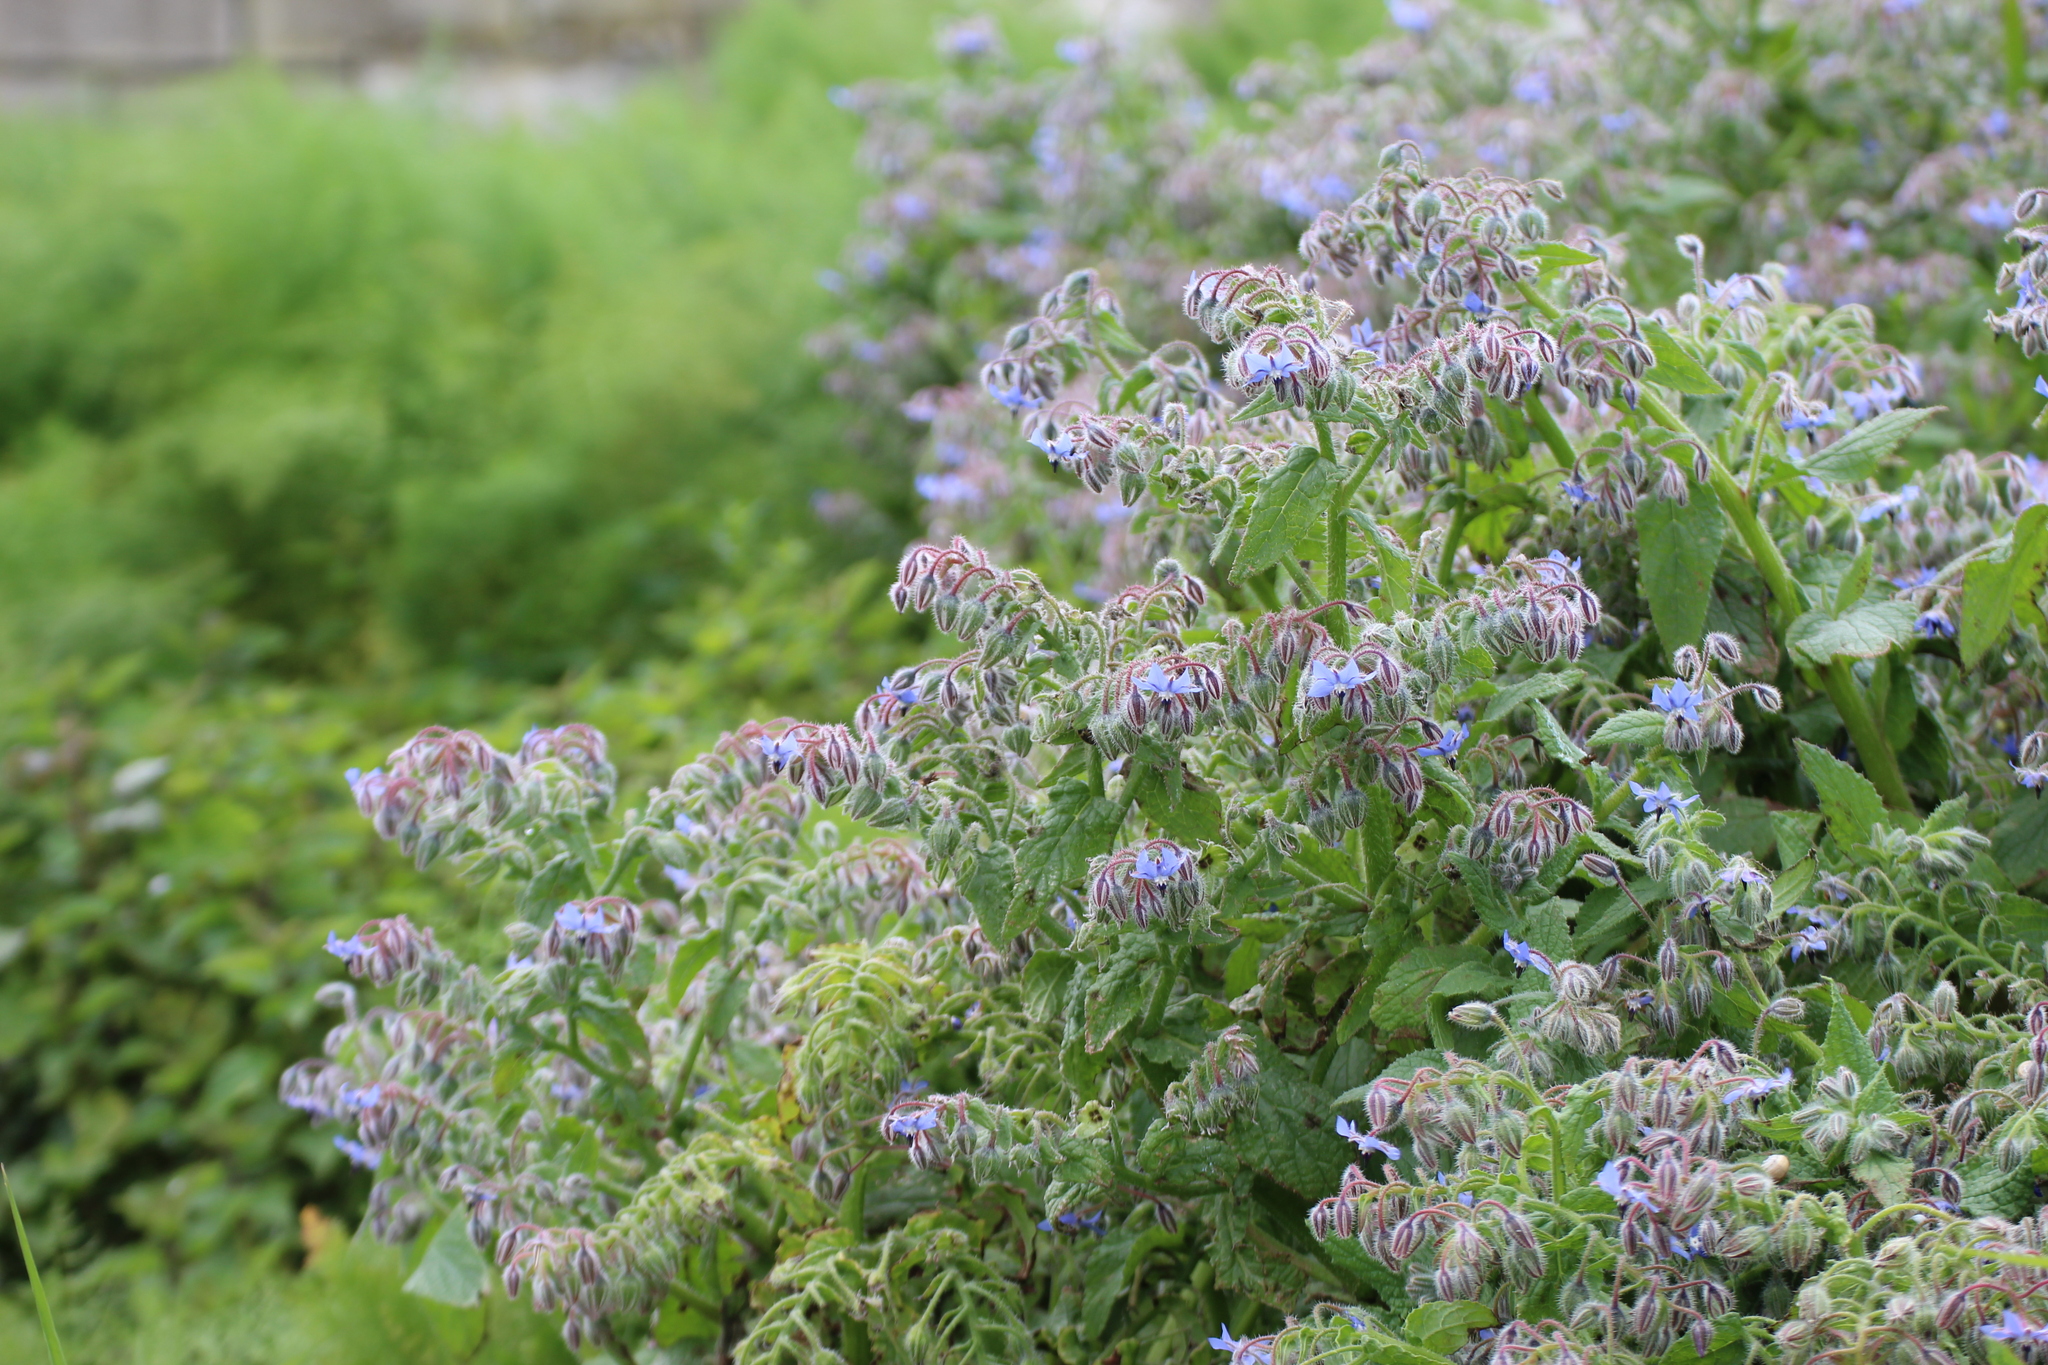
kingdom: Plantae
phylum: Tracheophyta
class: Magnoliopsida
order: Boraginales
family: Boraginaceae
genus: Borago
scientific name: Borago officinalis
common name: Borage
